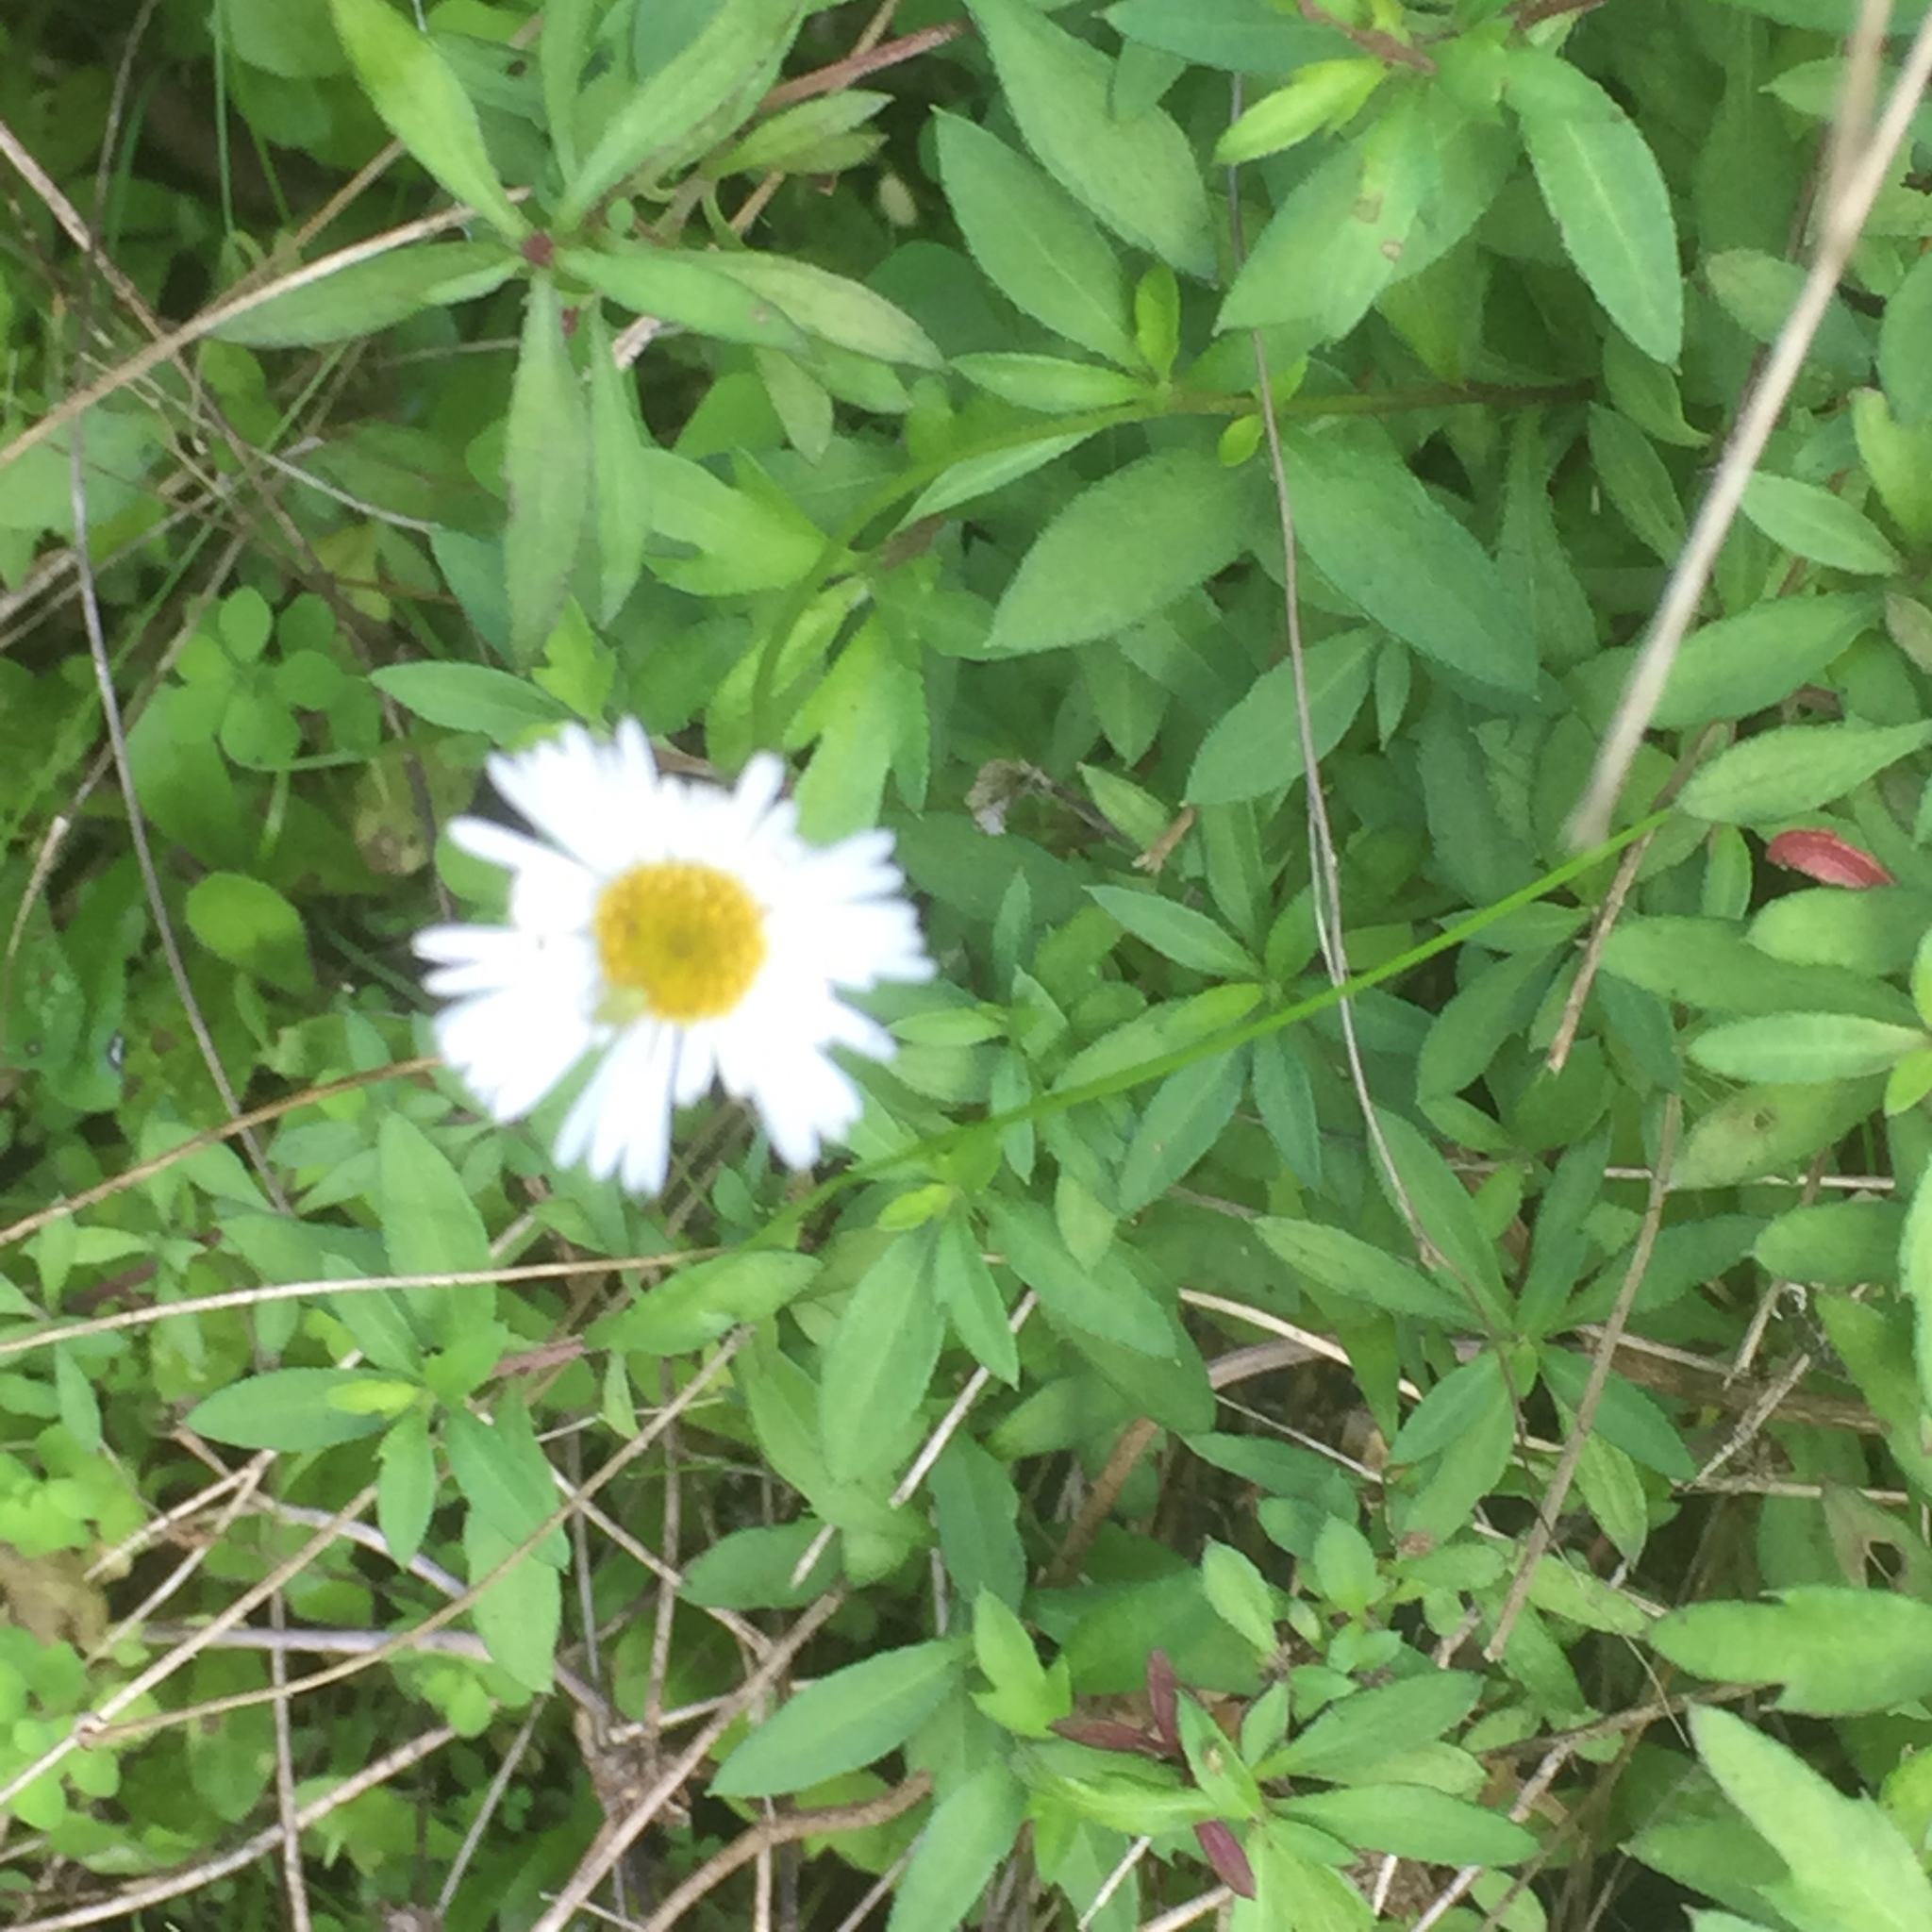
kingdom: Plantae
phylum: Tracheophyta
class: Magnoliopsida
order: Asterales
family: Asteraceae
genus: Erigeron
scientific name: Erigeron karvinskianus
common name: Mexican fleabane
